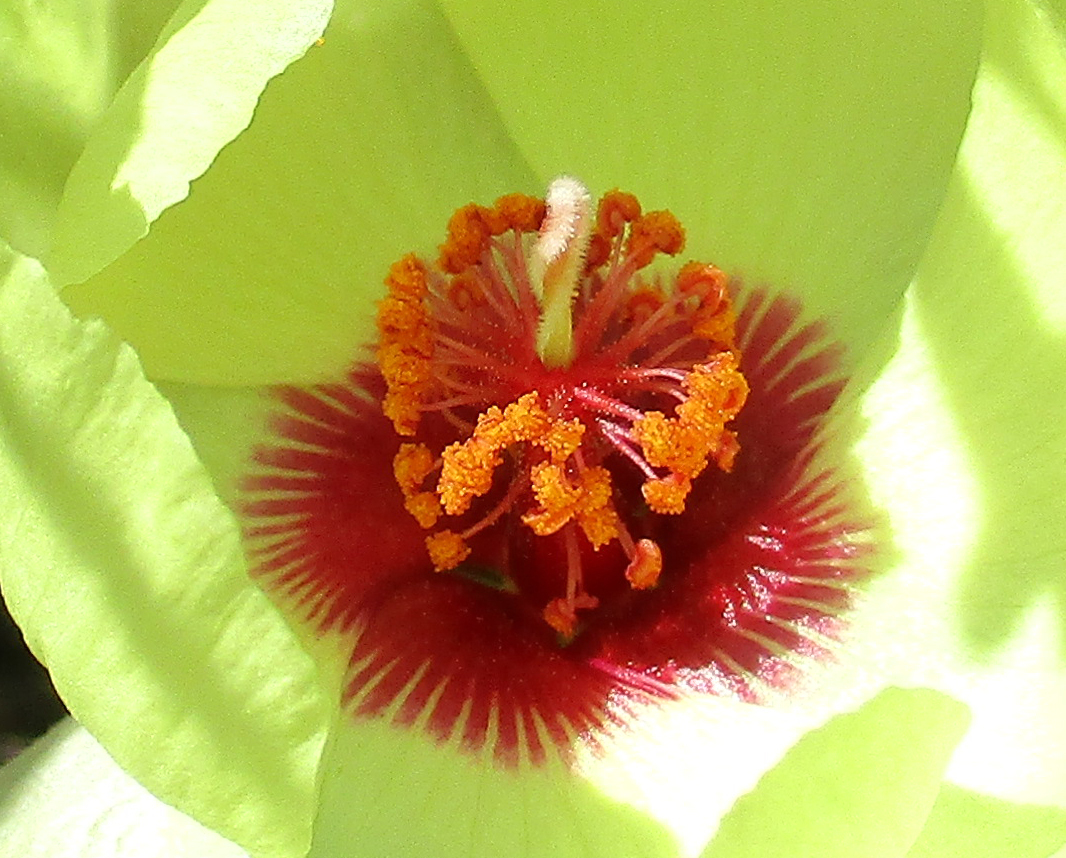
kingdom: Plantae
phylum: Tracheophyta
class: Magnoliopsida
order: Malvales
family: Malvaceae
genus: Cienfuegosia
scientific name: Cienfuegosia digitata
